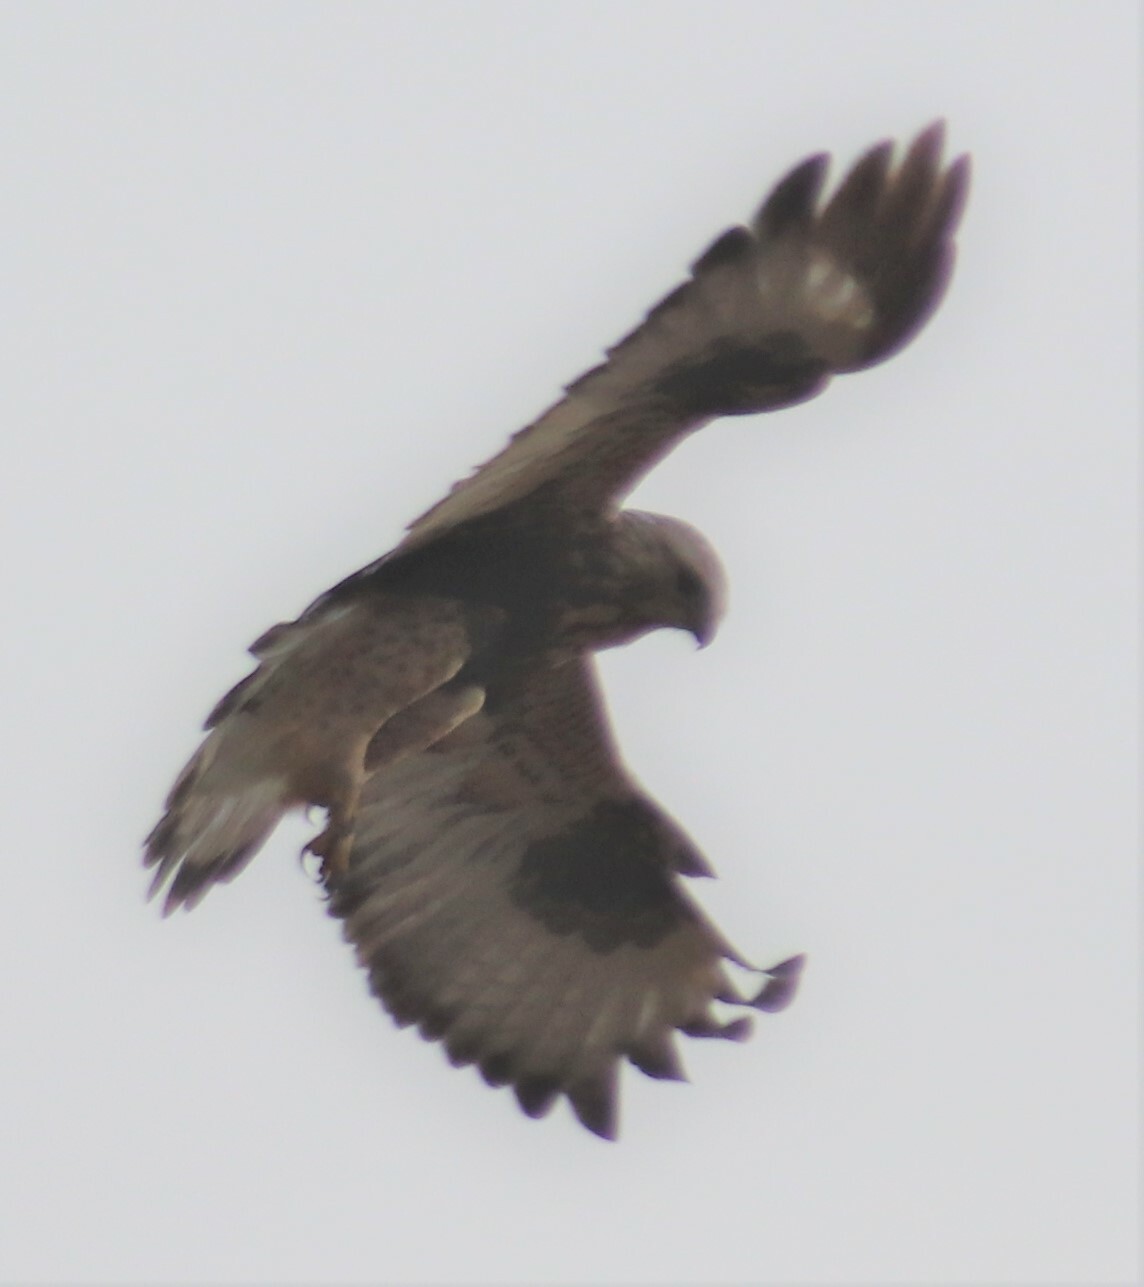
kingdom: Animalia
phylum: Chordata
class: Aves
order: Accipitriformes
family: Accipitridae
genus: Buteo
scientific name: Buteo lagopus
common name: Rough-legged buzzard
